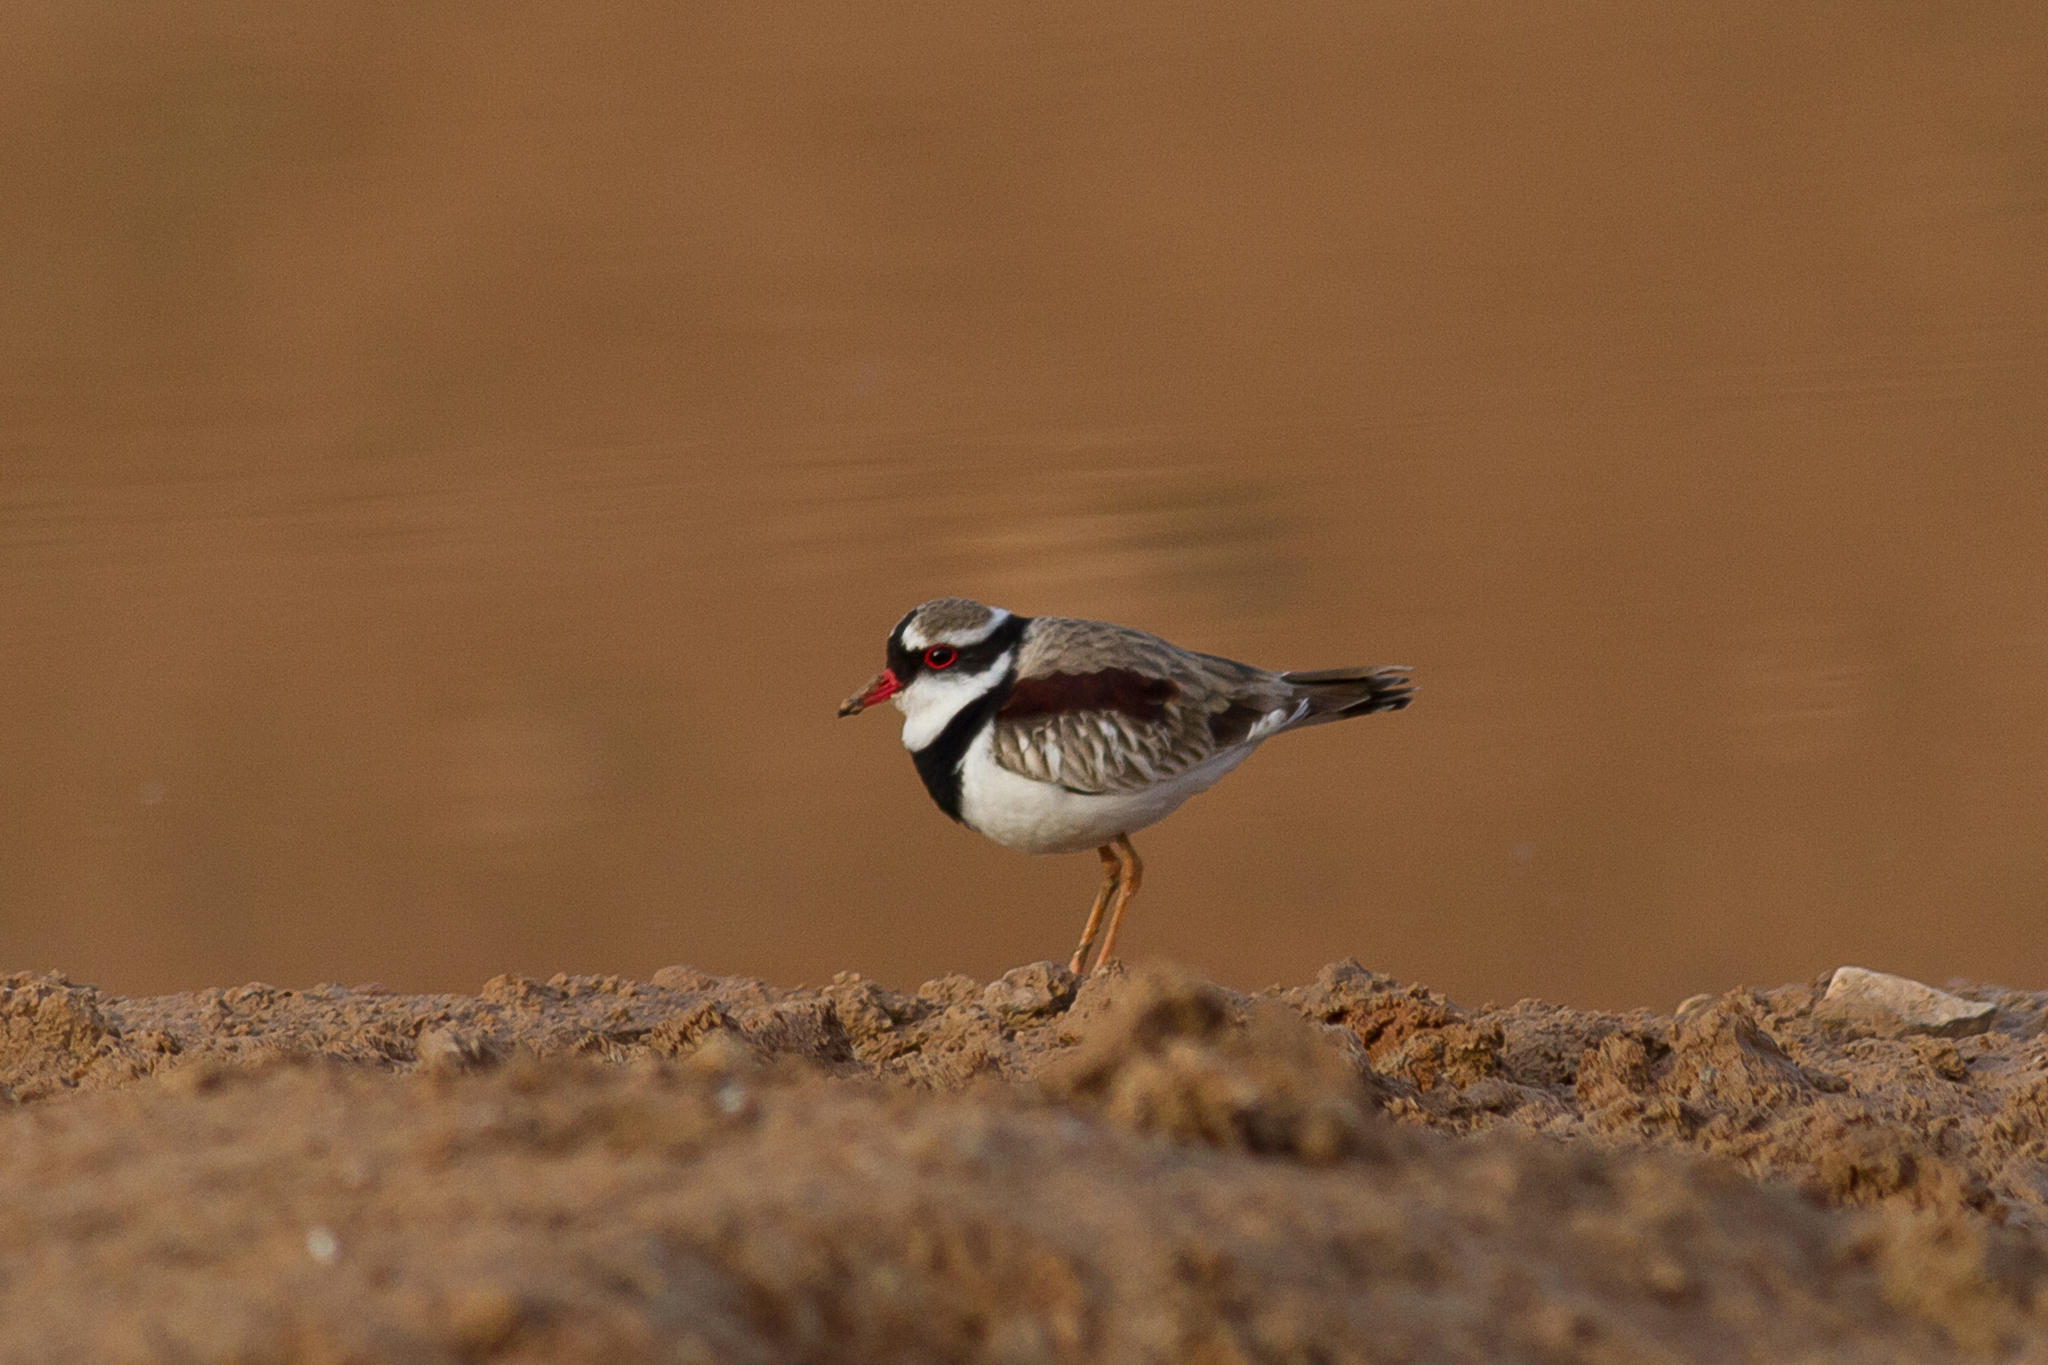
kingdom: Animalia
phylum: Chordata
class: Aves
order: Charadriiformes
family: Charadriidae
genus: Elseyornis
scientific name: Elseyornis melanops
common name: Black-fronted dotterel
